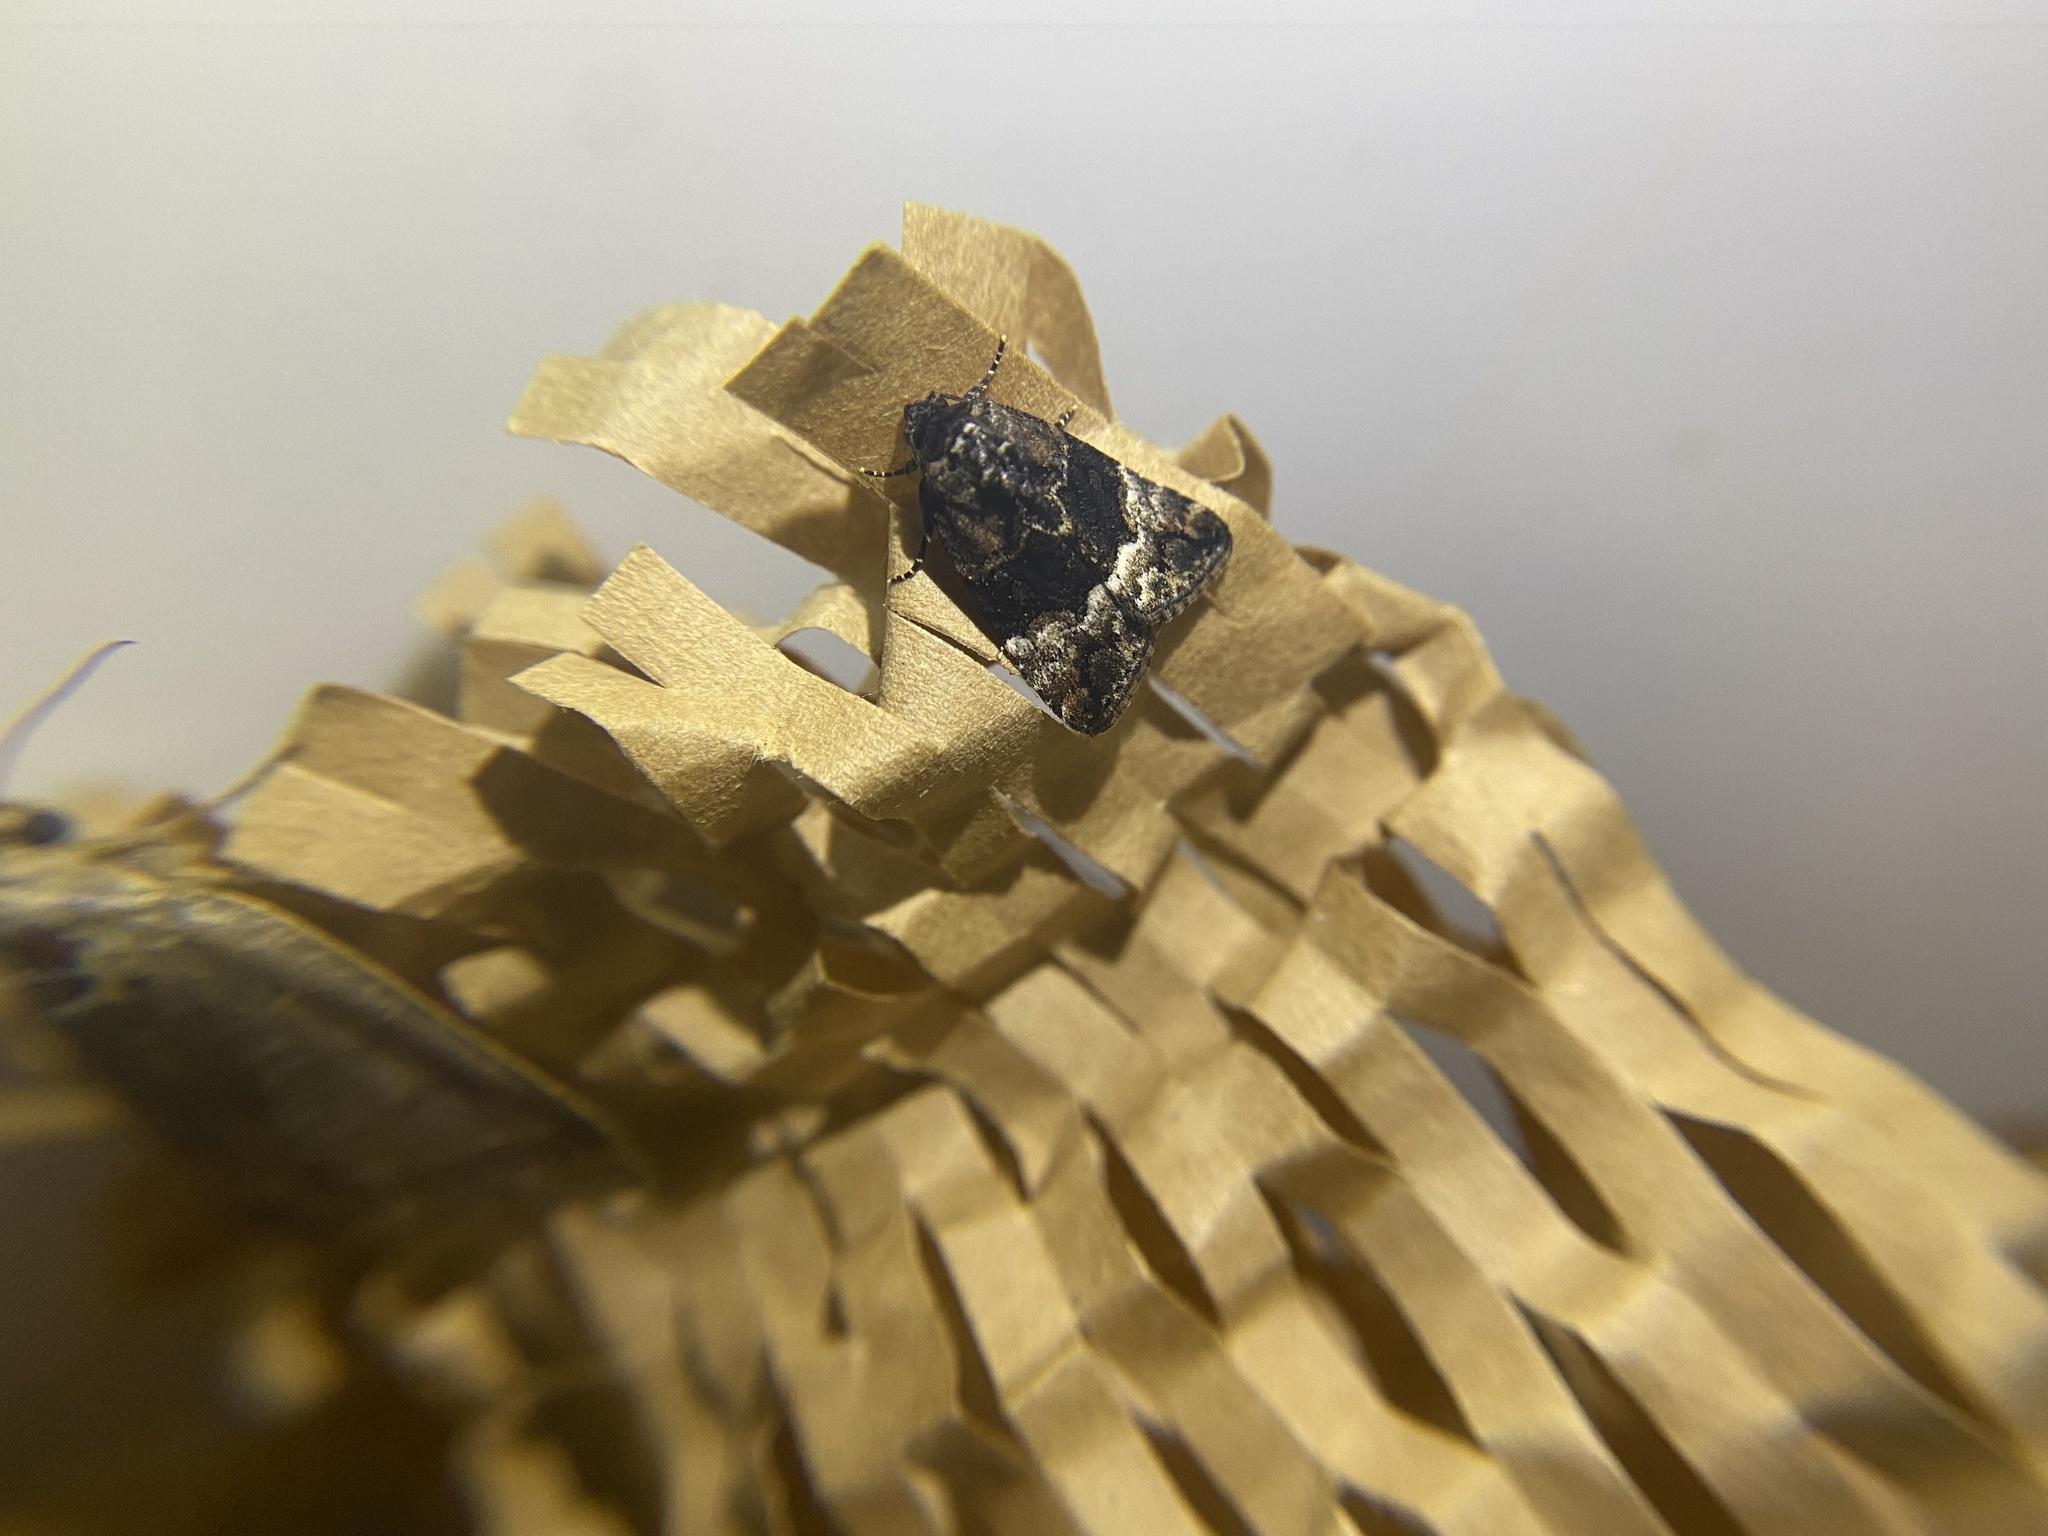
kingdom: Animalia
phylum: Arthropoda
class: Insecta
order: Lepidoptera
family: Noctuidae
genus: Elaphria
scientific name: Elaphria georgei
